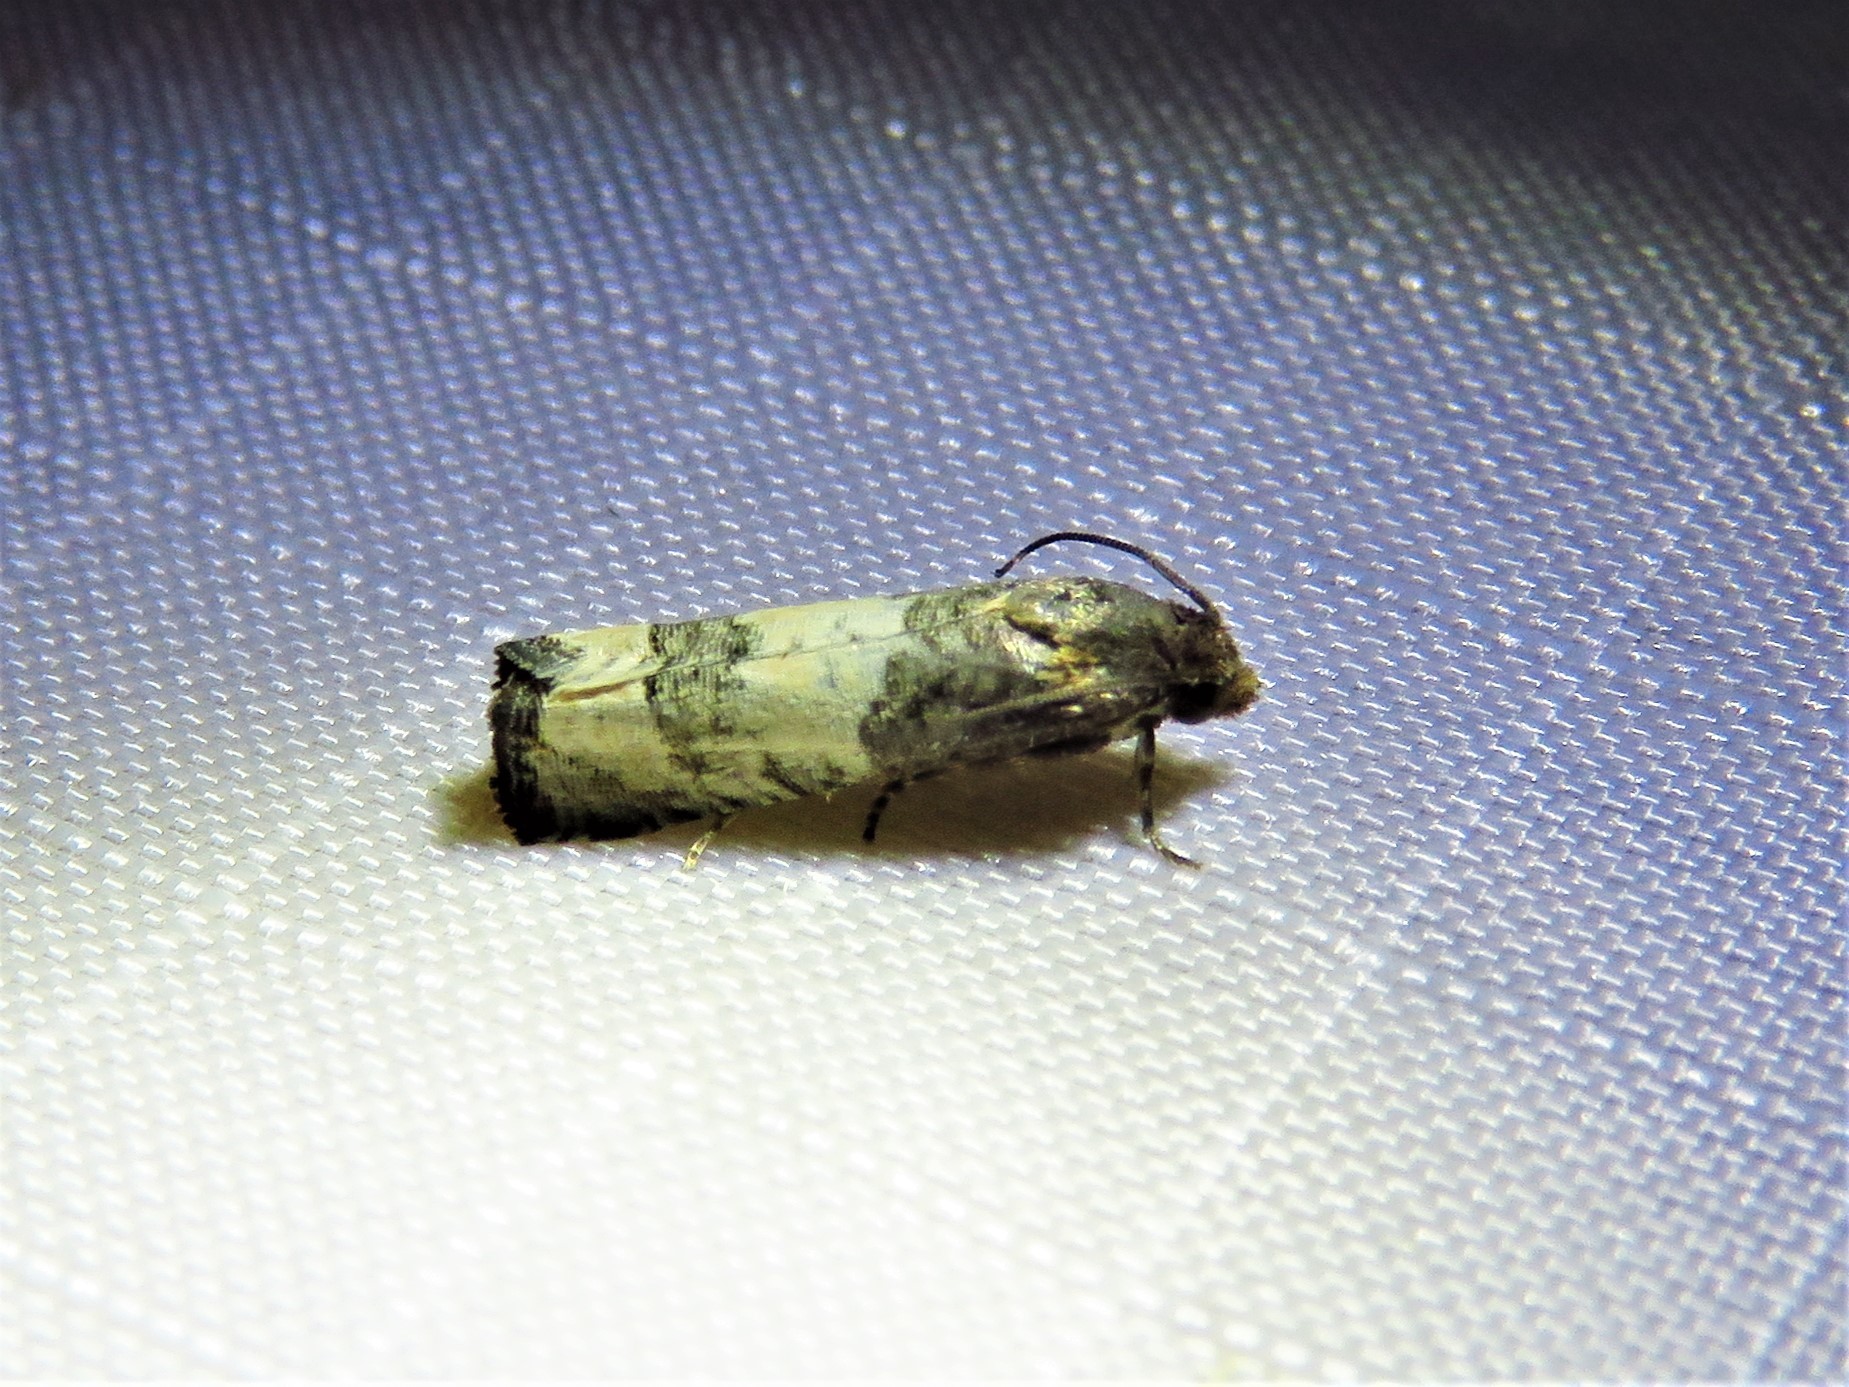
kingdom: Animalia
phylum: Arthropoda
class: Insecta
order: Lepidoptera
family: Tortricidae
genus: Epiblema
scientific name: Epiblema desertana
